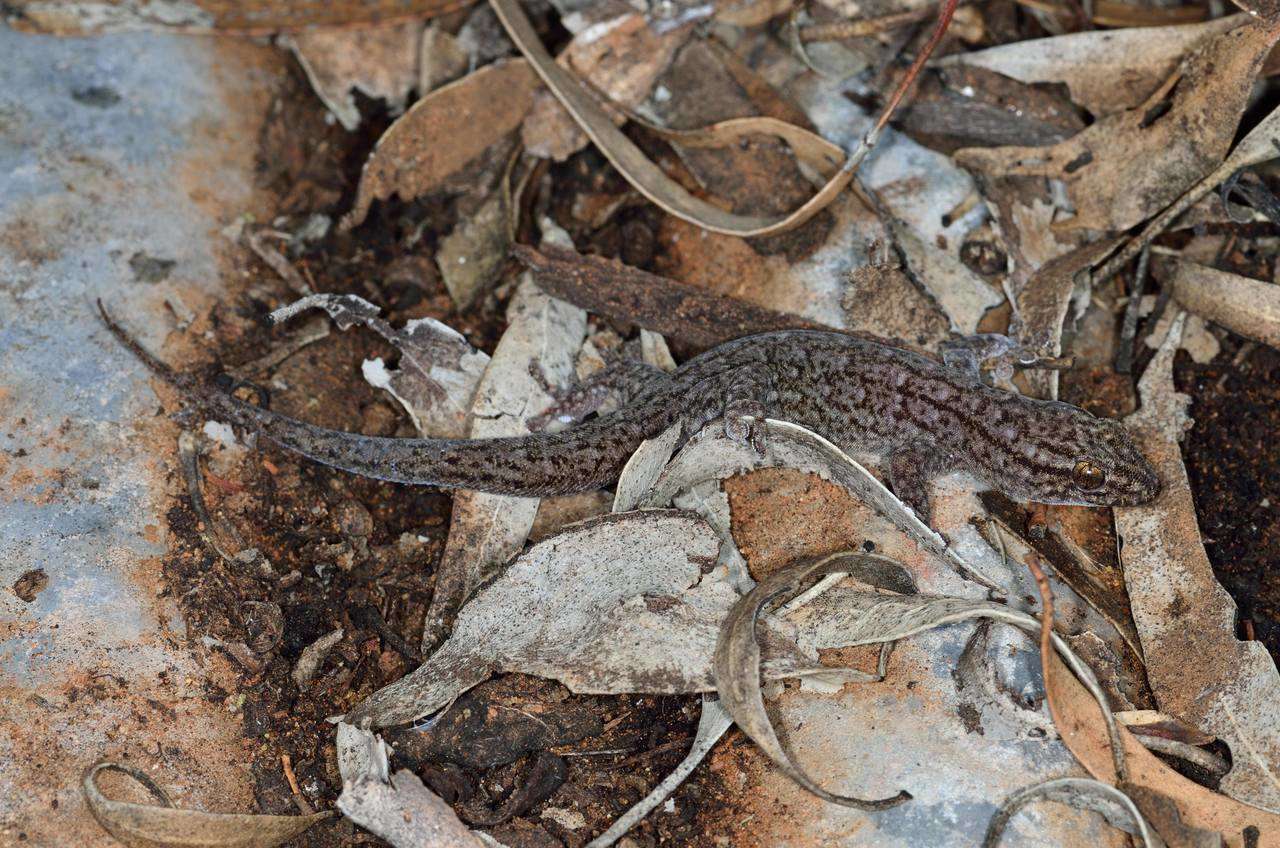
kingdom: Animalia
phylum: Chordata
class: Squamata
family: Gekkonidae
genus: Gehyra
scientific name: Gehyra versicolor
